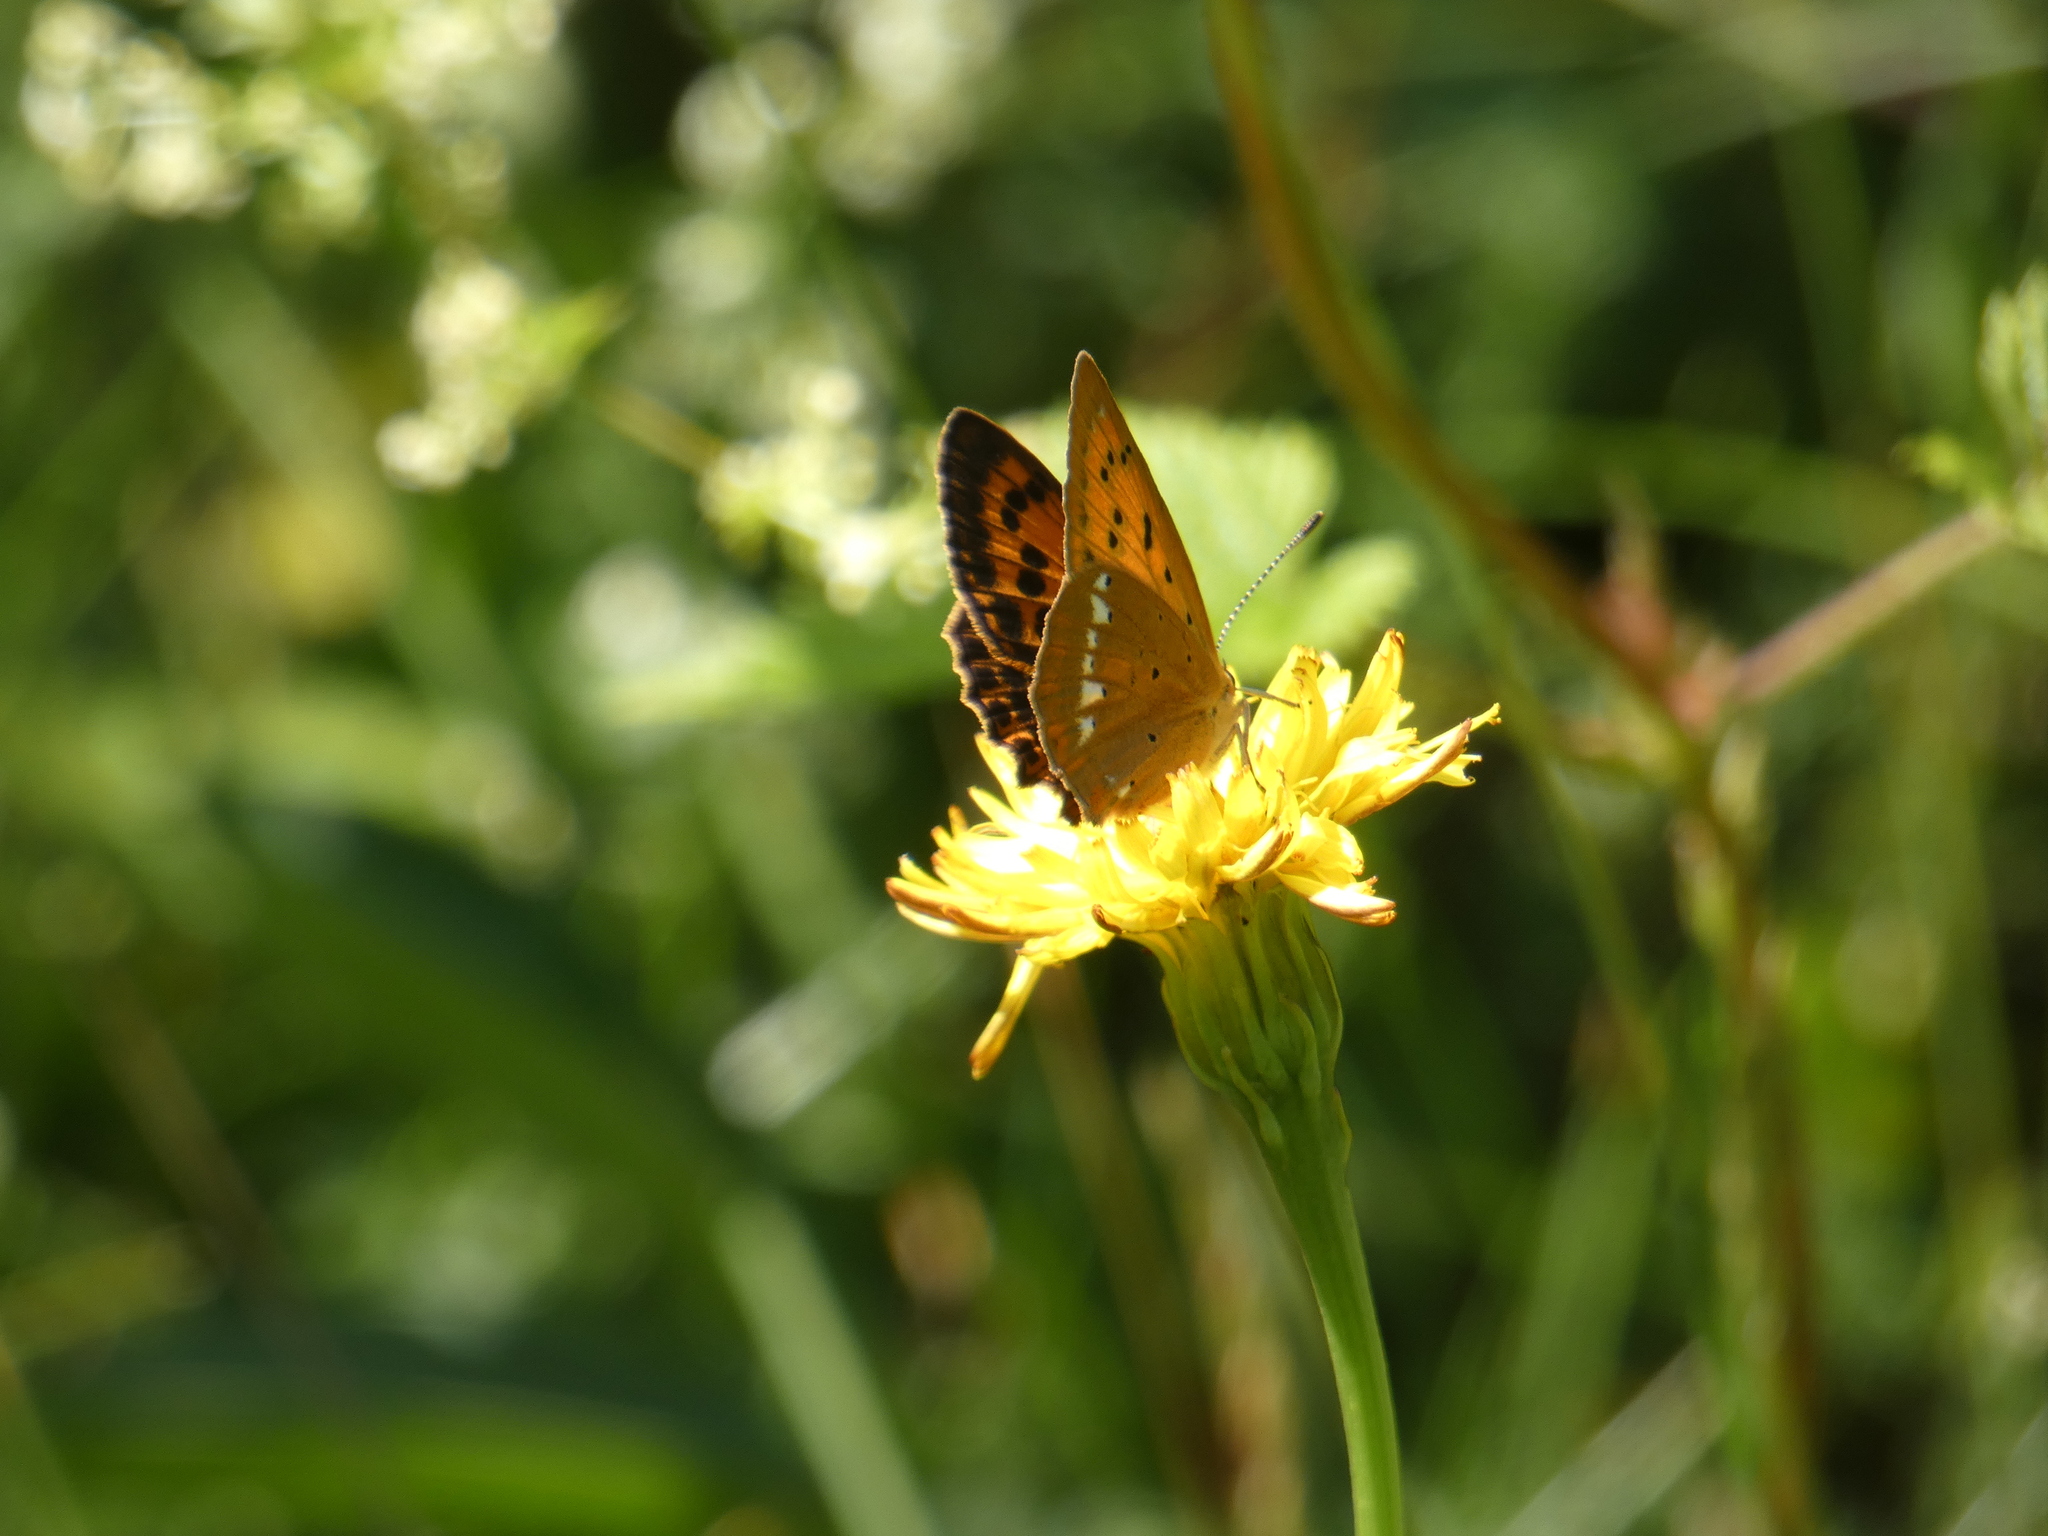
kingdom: Animalia
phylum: Arthropoda
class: Insecta
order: Lepidoptera
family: Lycaenidae
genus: Lycaena
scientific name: Lycaena virgaureae
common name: Scarce copper
